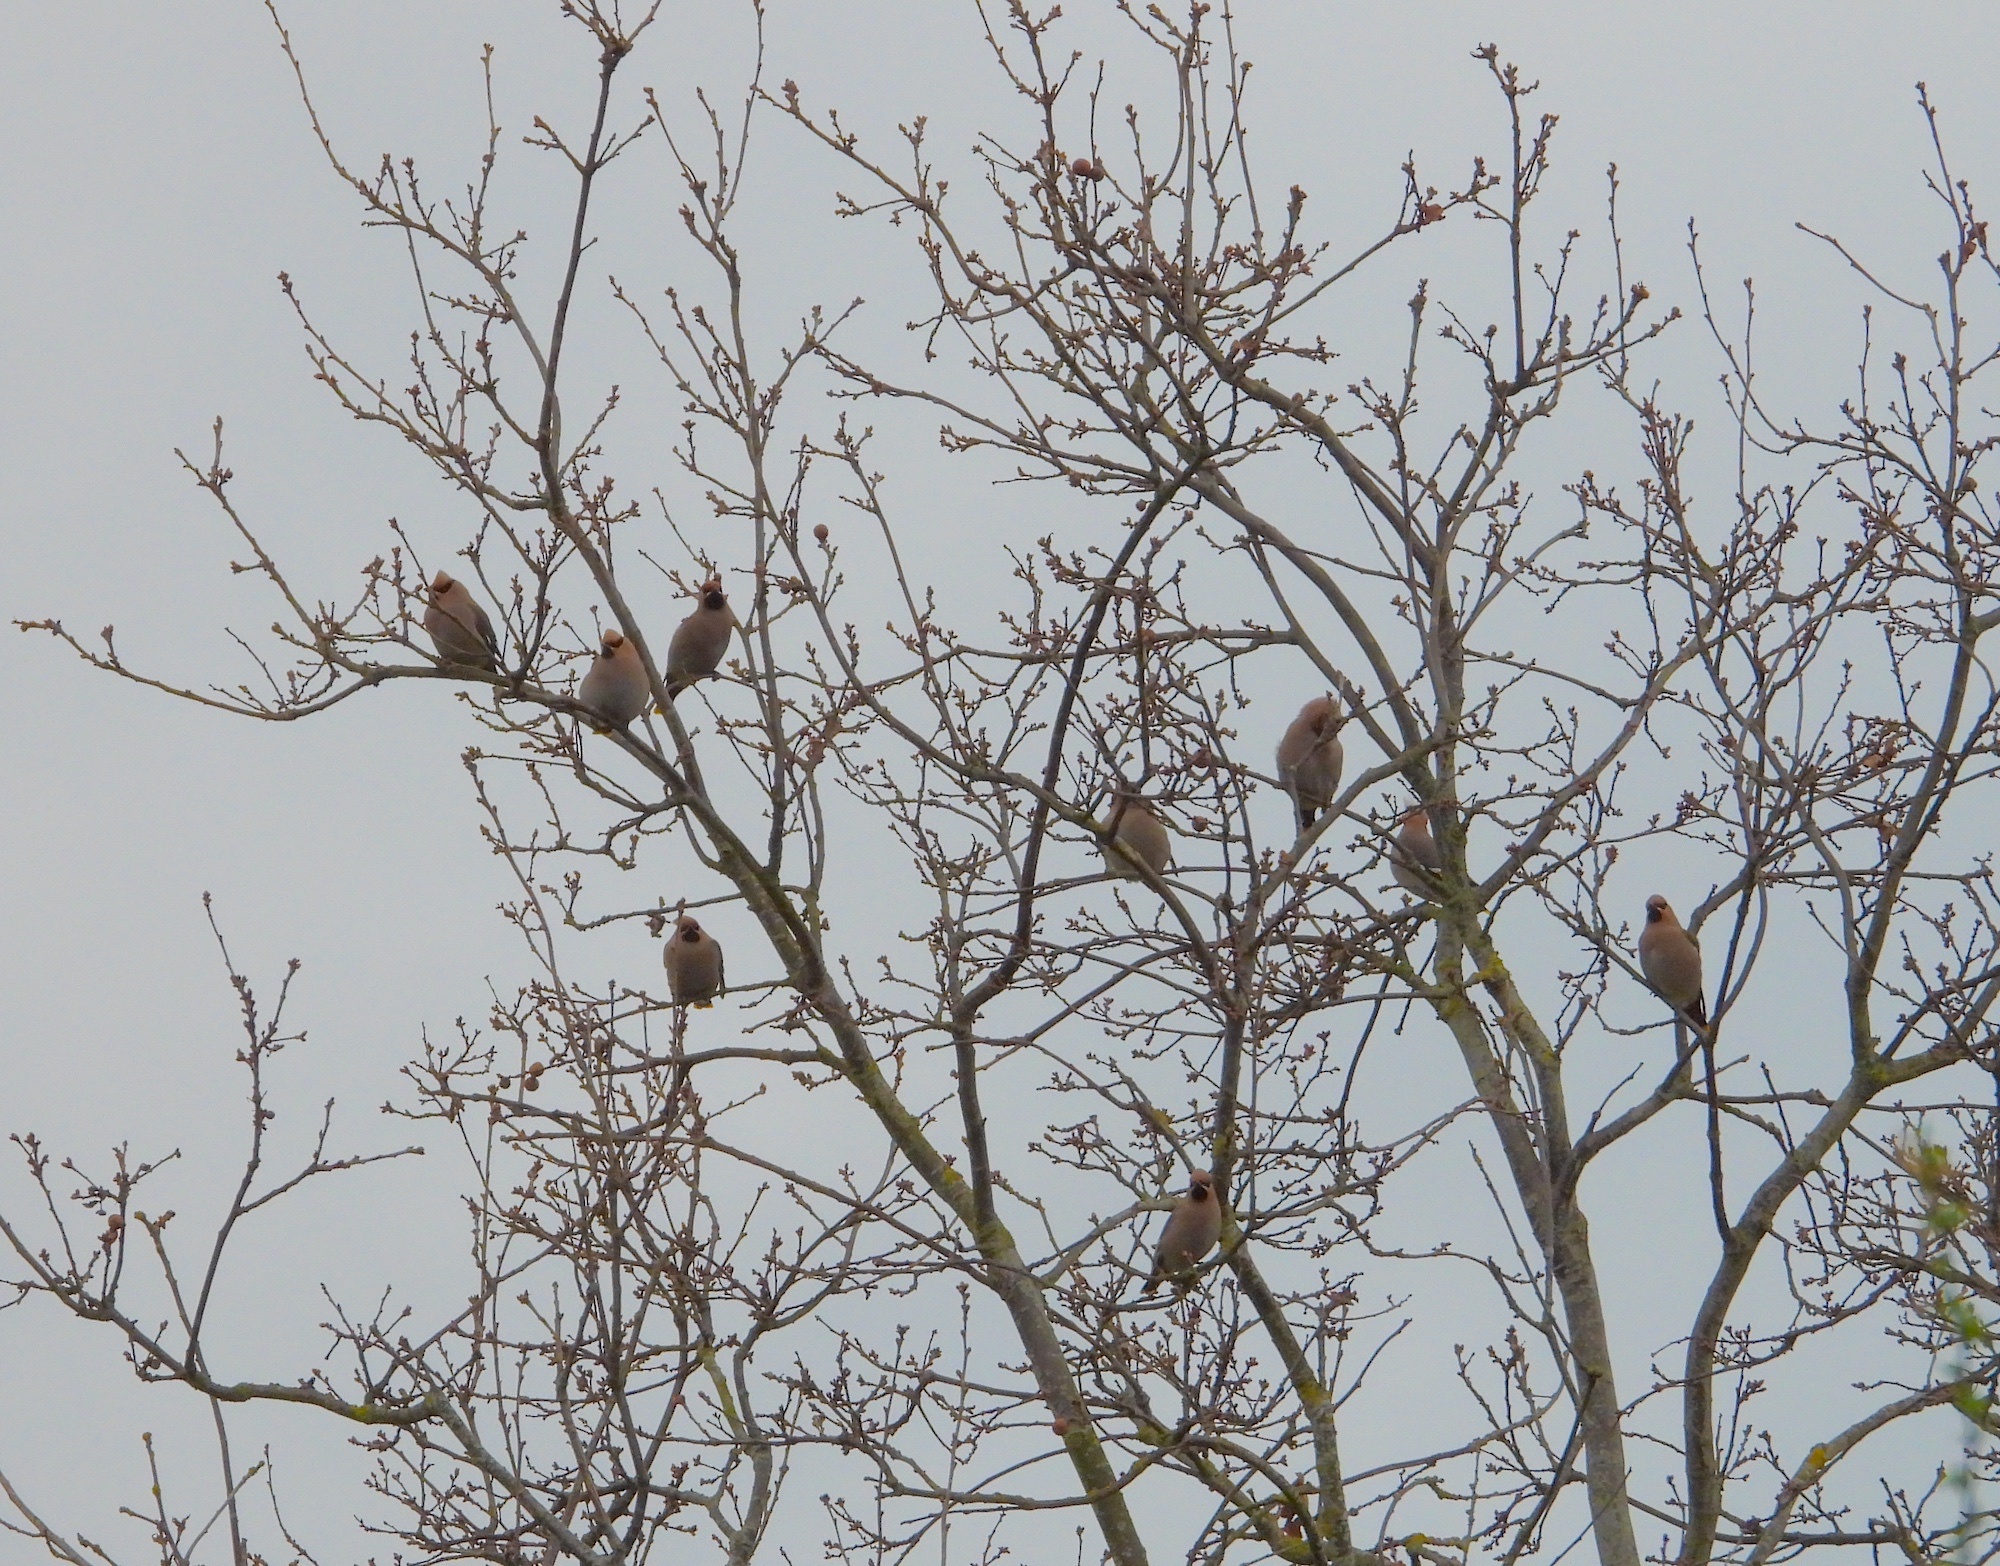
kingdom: Animalia
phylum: Chordata
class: Aves
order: Passeriformes
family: Bombycillidae
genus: Bombycilla
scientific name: Bombycilla garrulus
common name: Bohemian waxwing
